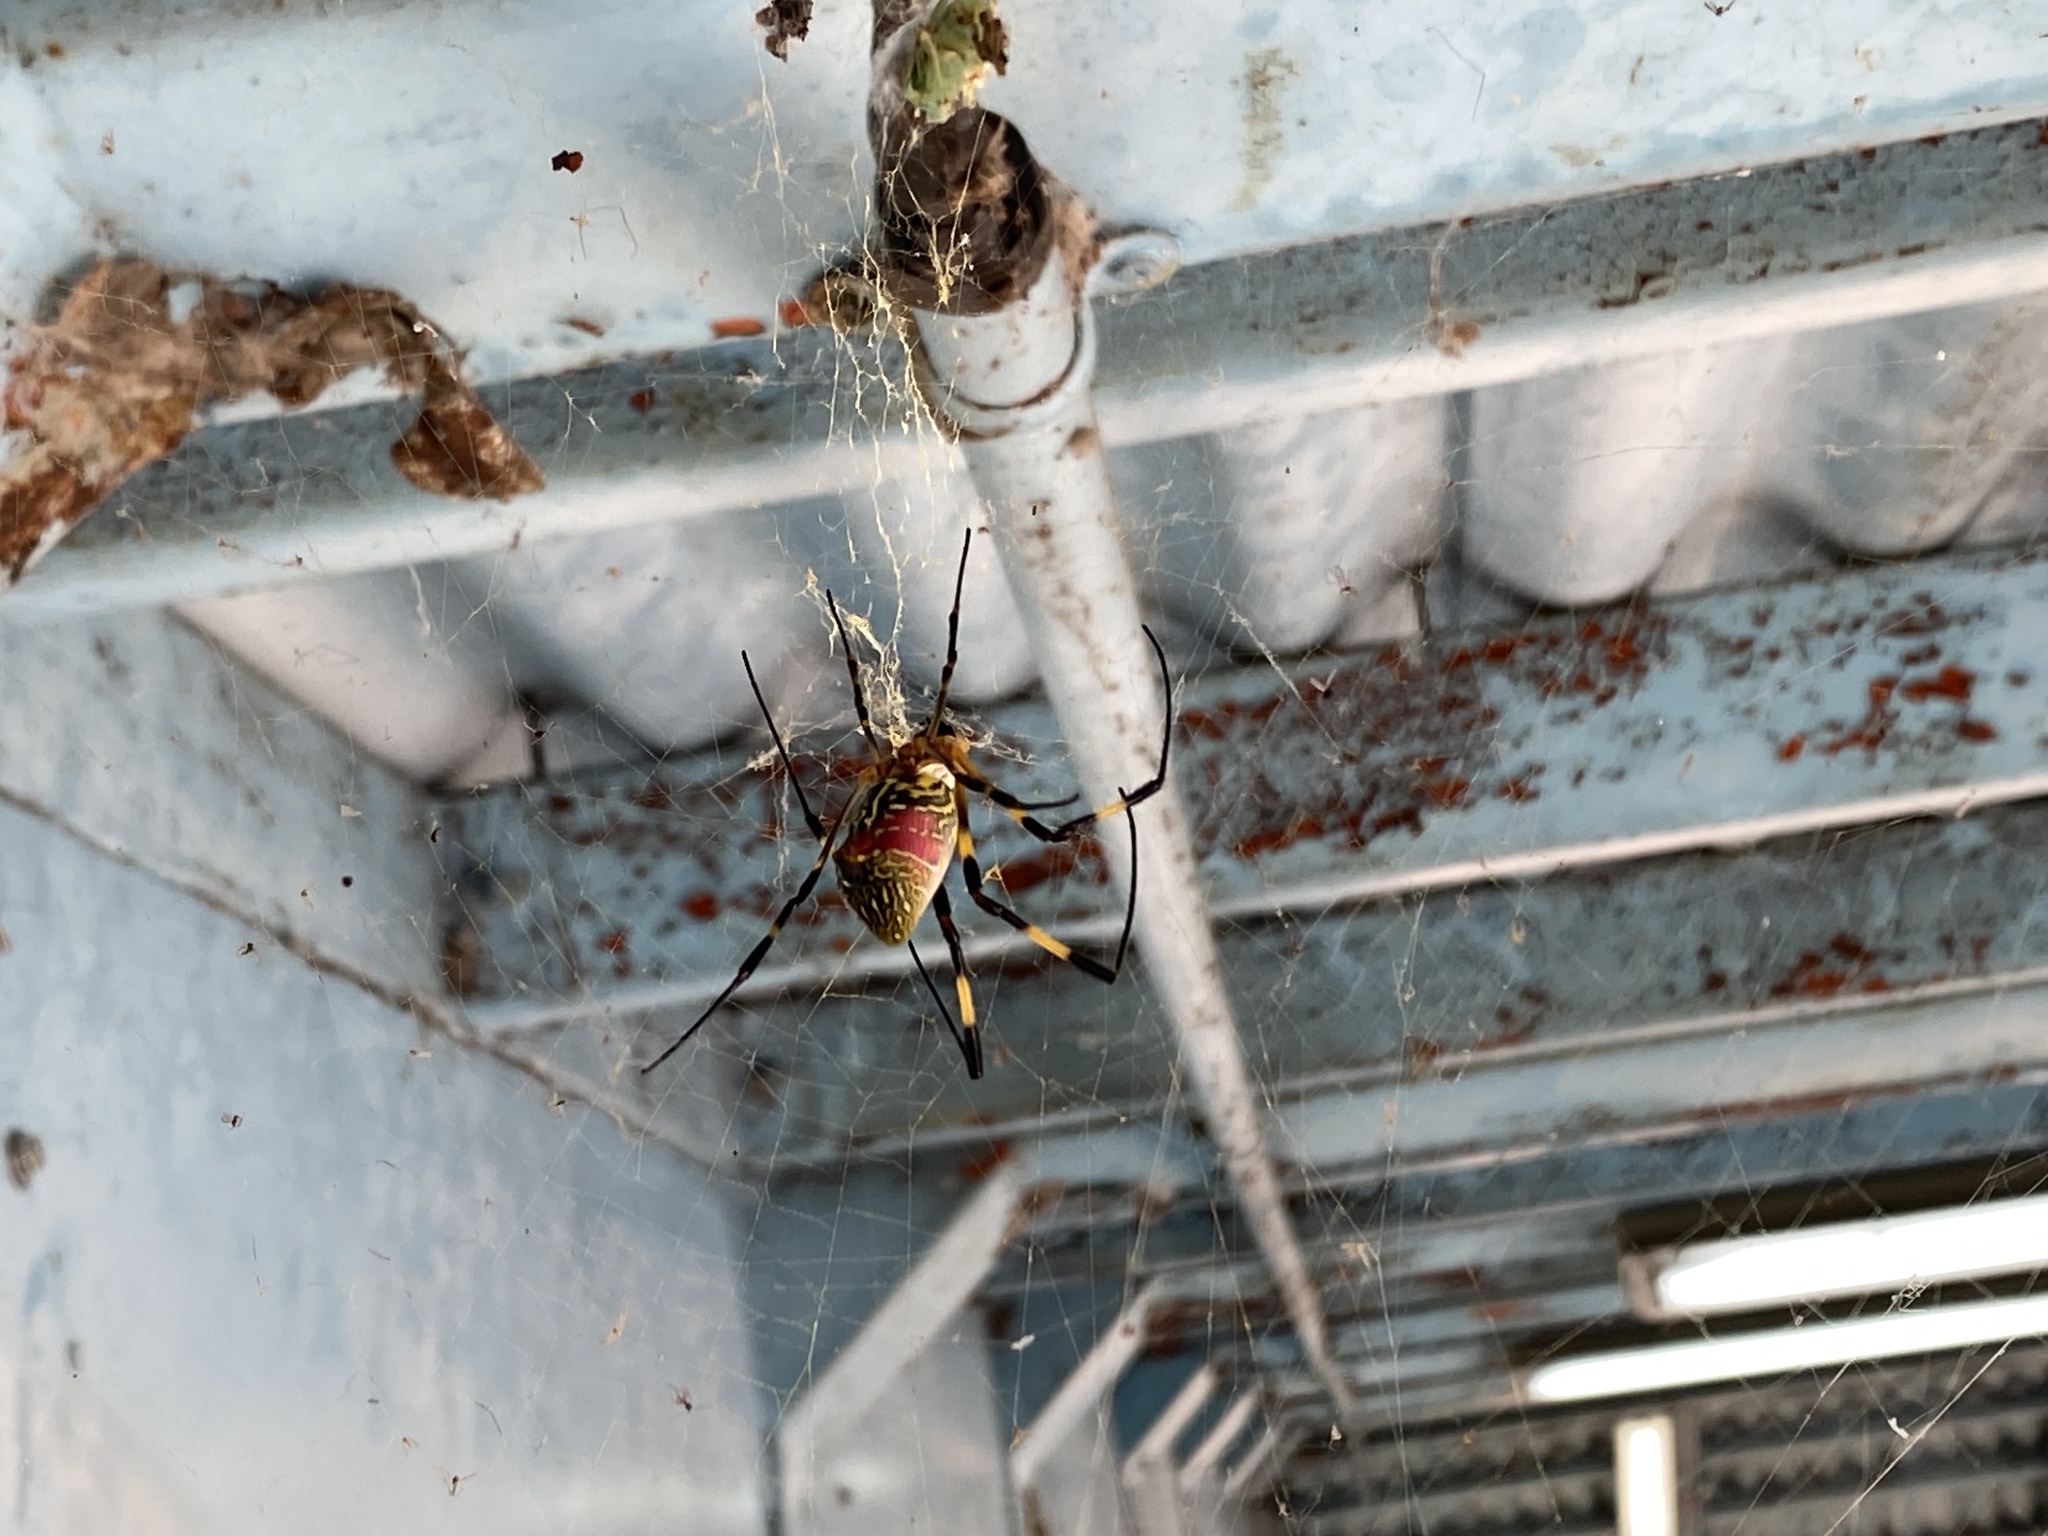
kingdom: Animalia
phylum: Arthropoda
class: Arachnida
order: Araneae
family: Araneidae
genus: Trichonephila
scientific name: Trichonephila clavata
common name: Jorō spider
